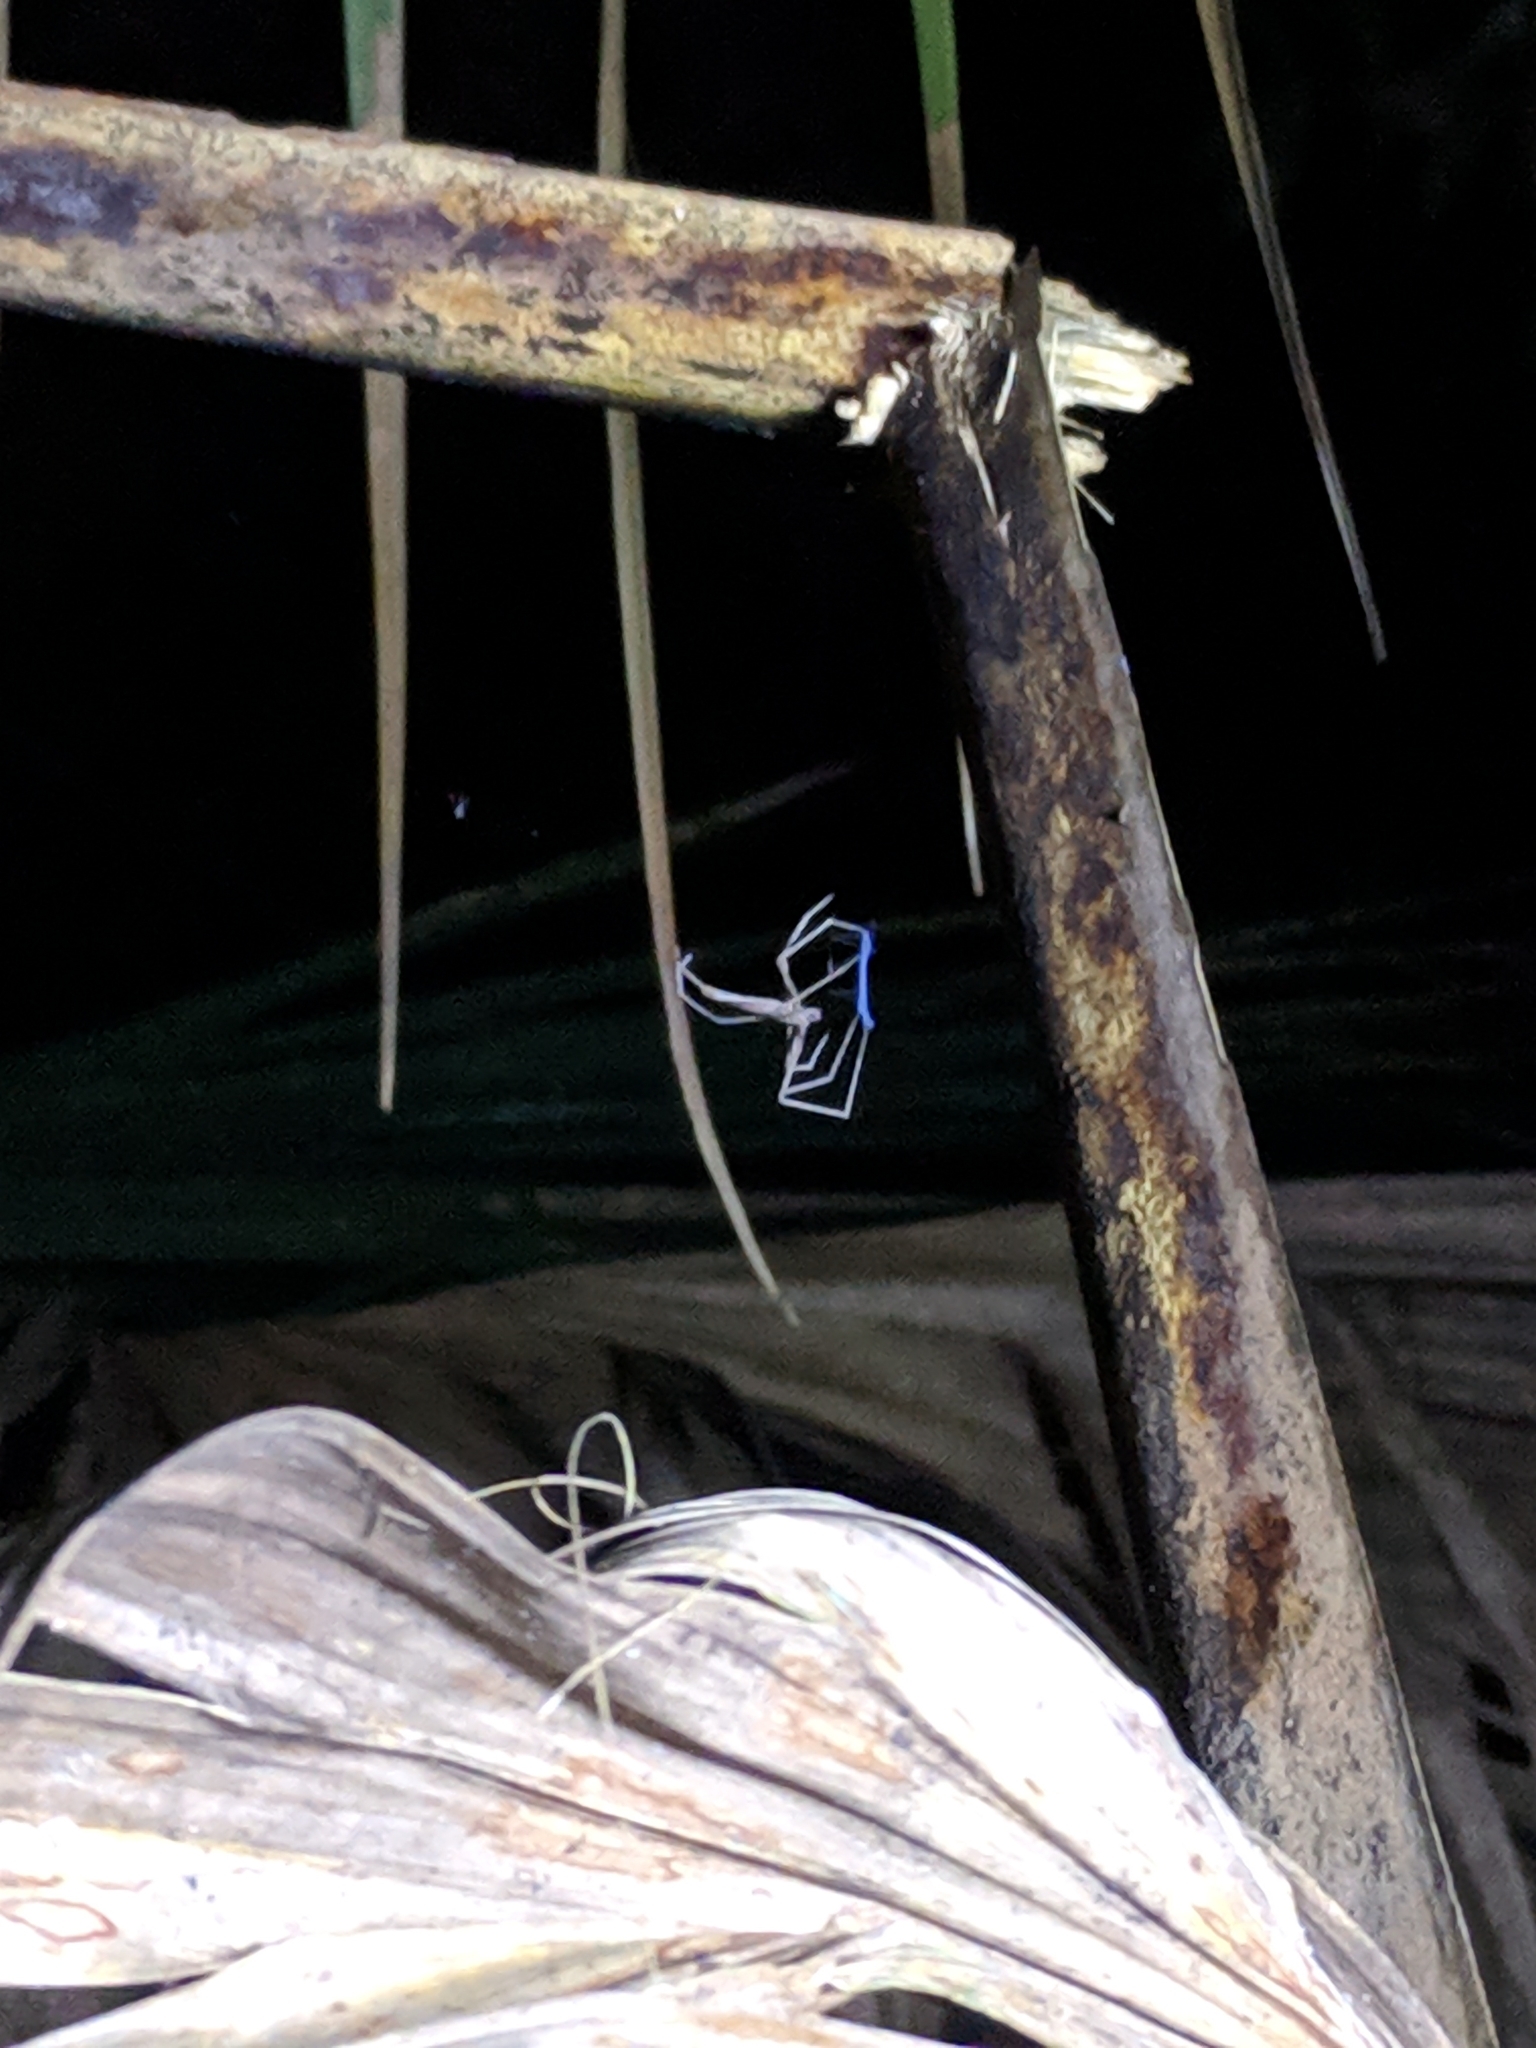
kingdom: Animalia
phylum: Arthropoda
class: Arachnida
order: Araneae
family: Deinopidae
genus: Deinopis
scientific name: Deinopis spinosa
